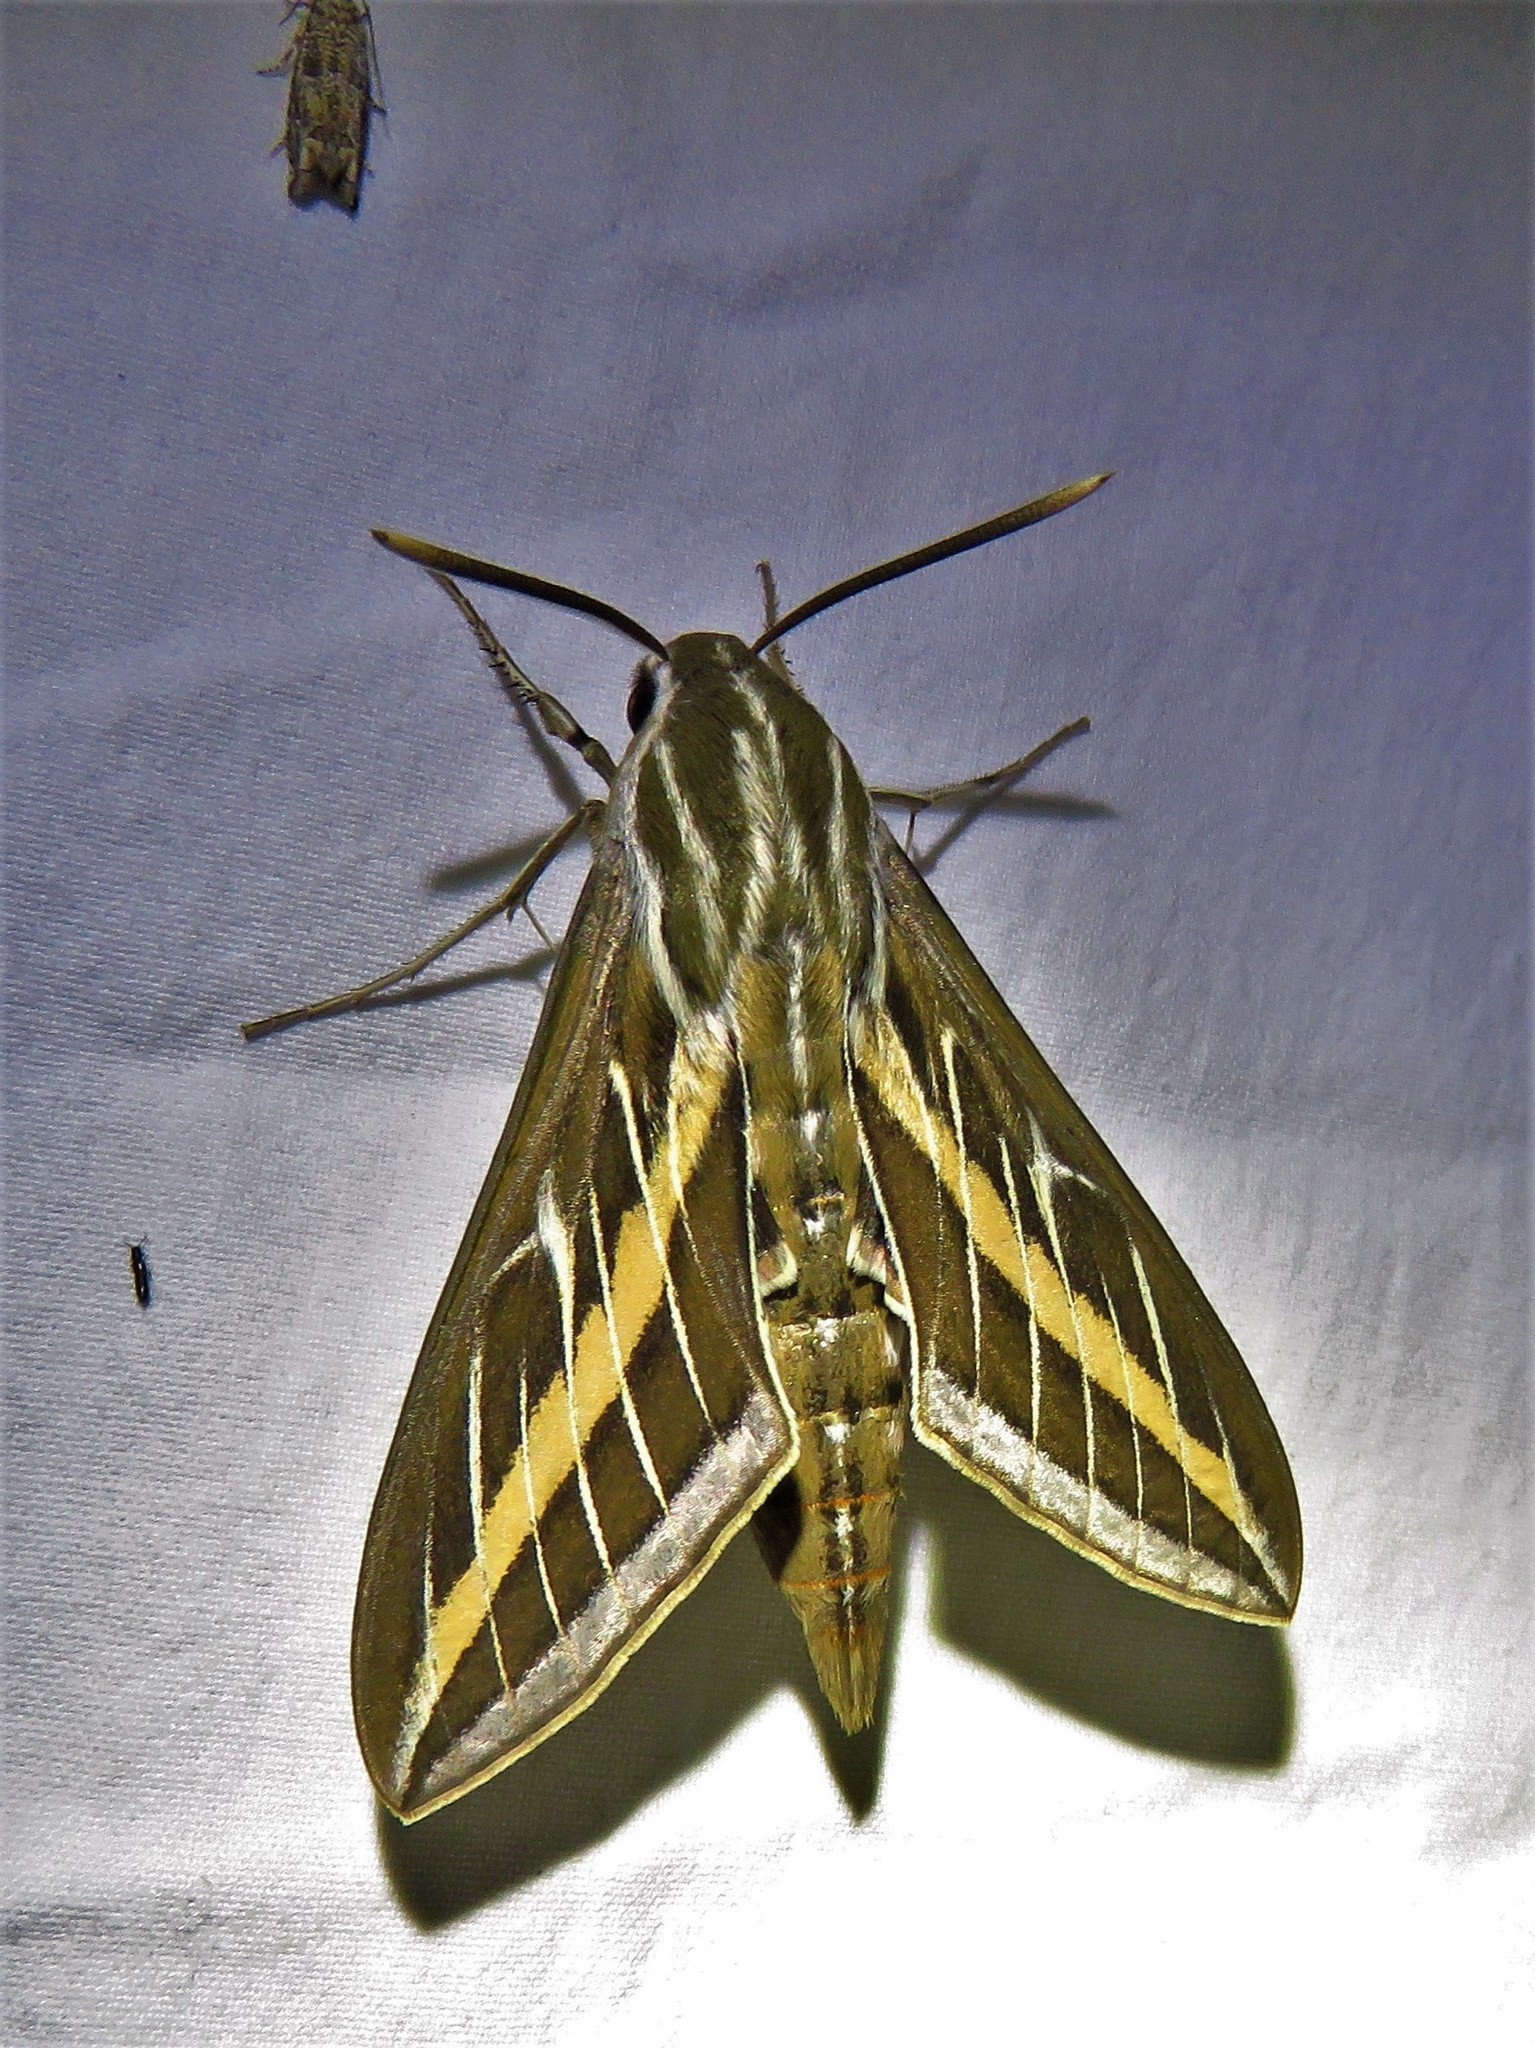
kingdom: Animalia
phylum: Arthropoda
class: Insecta
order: Lepidoptera
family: Sphingidae
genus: Hyles
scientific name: Hyles lineata
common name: White-lined sphinx
